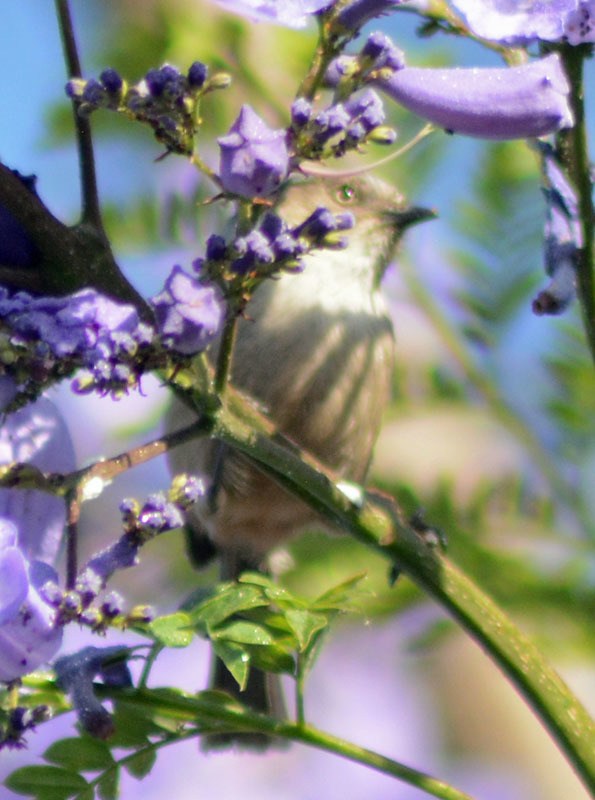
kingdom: Animalia
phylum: Chordata
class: Aves
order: Passeriformes
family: Aegithalidae
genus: Psaltriparus
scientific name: Psaltriparus minimus
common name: American bushtit
